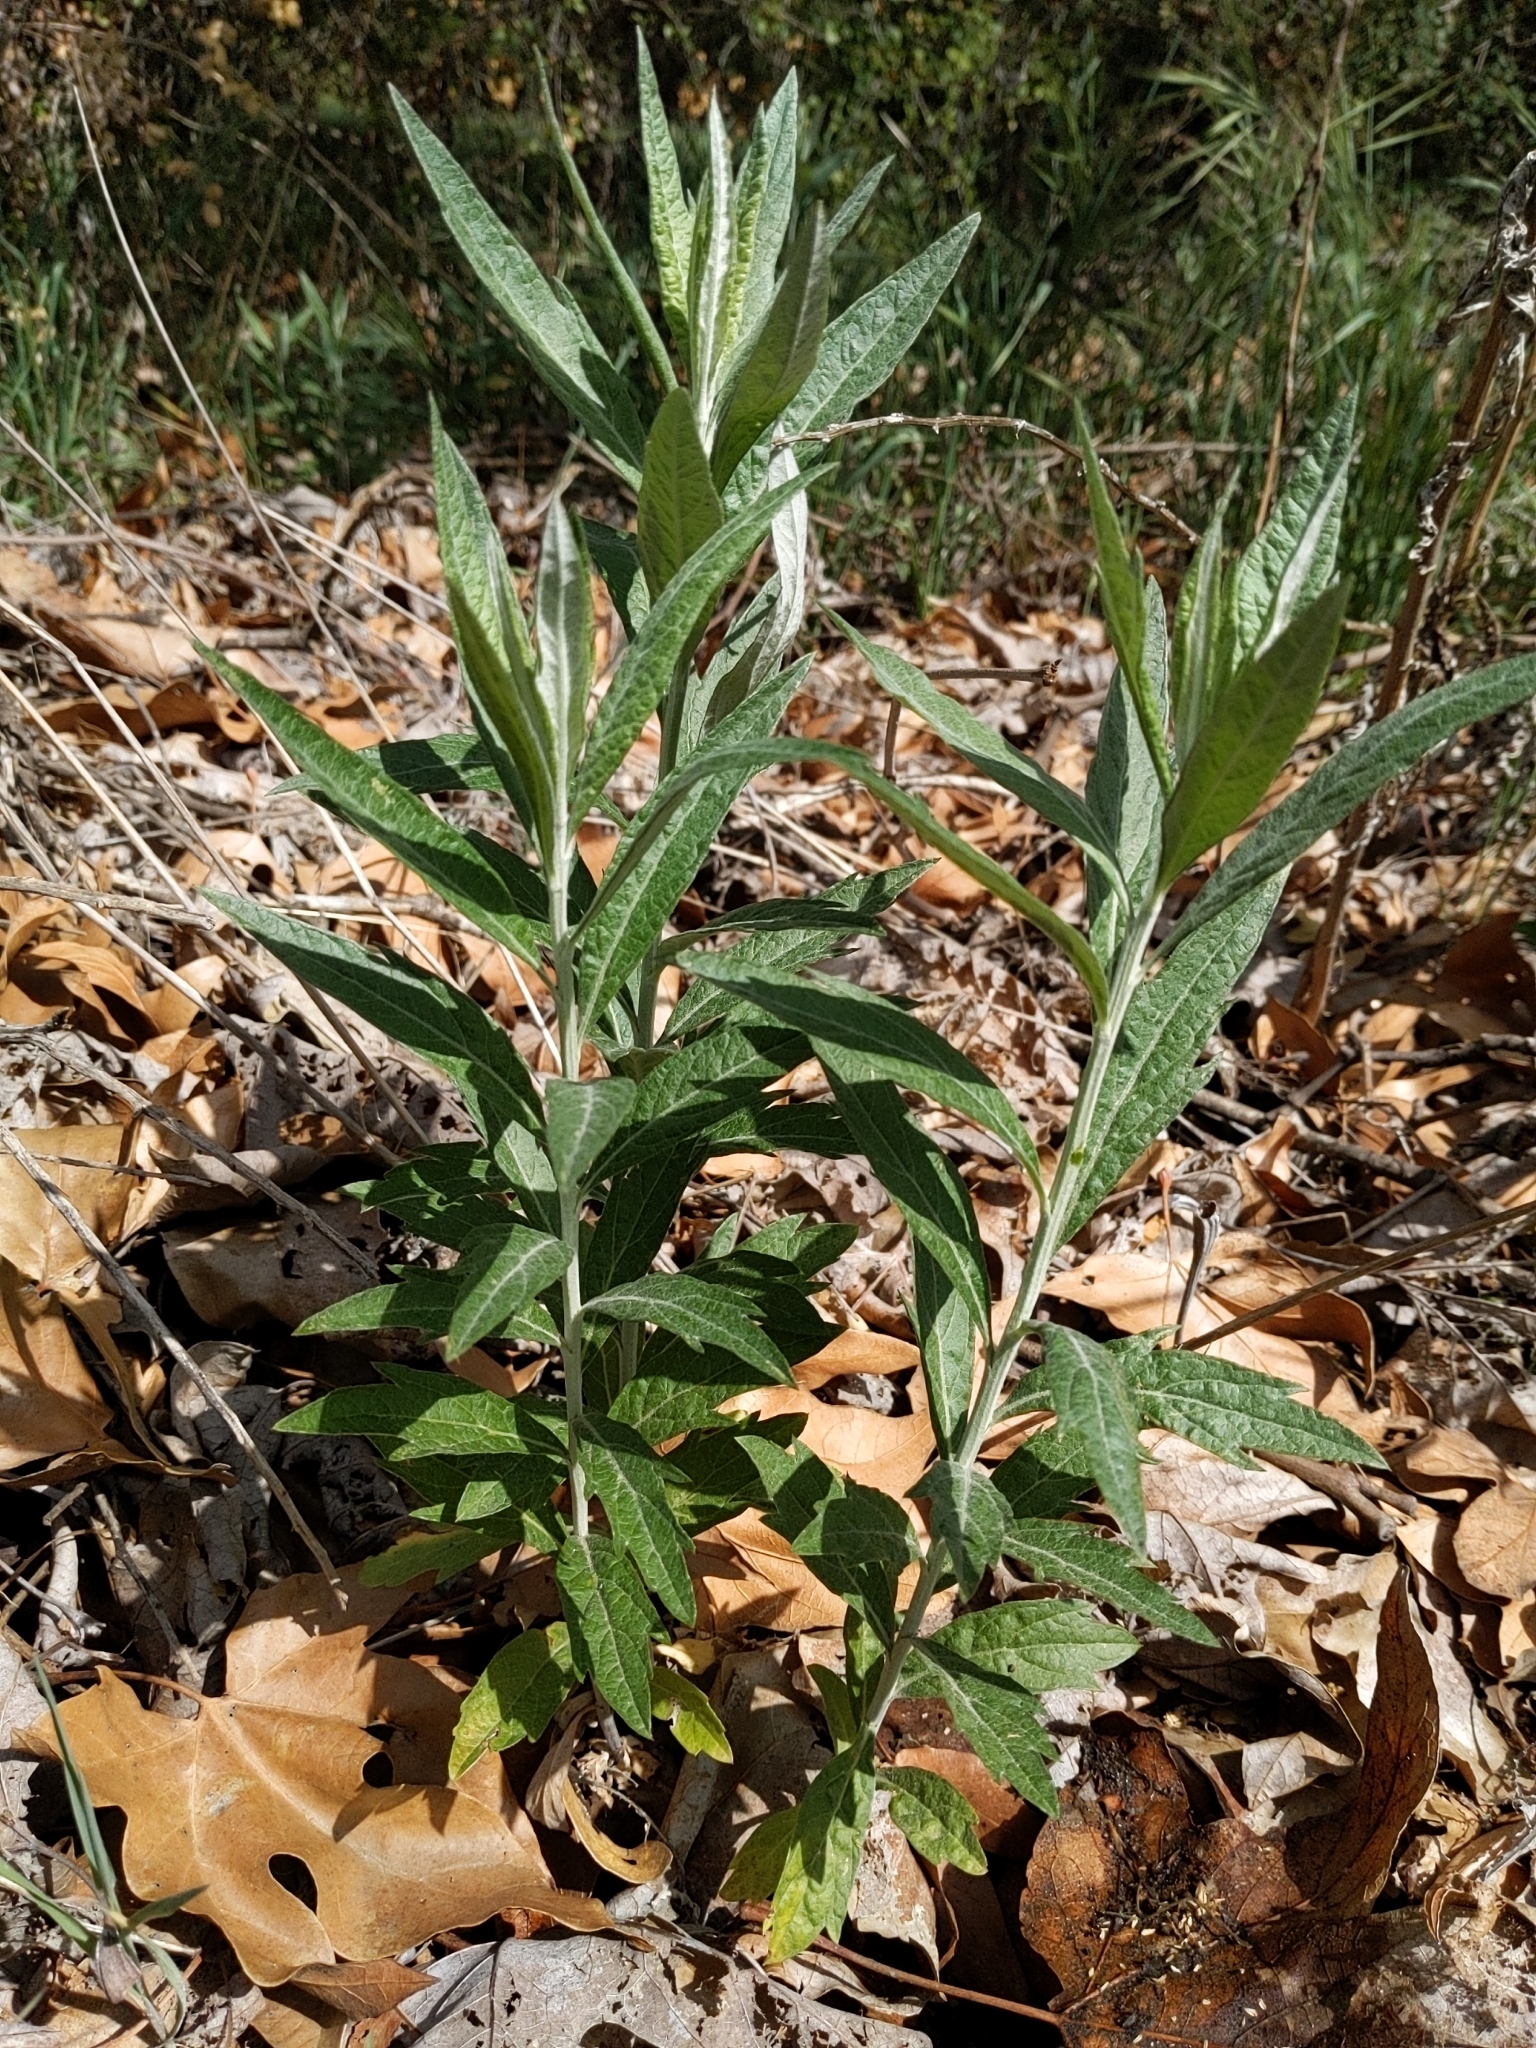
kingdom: Plantae
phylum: Tracheophyta
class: Magnoliopsida
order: Asterales
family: Asteraceae
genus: Artemisia
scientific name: Artemisia douglasiana
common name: Northwest mugwort
